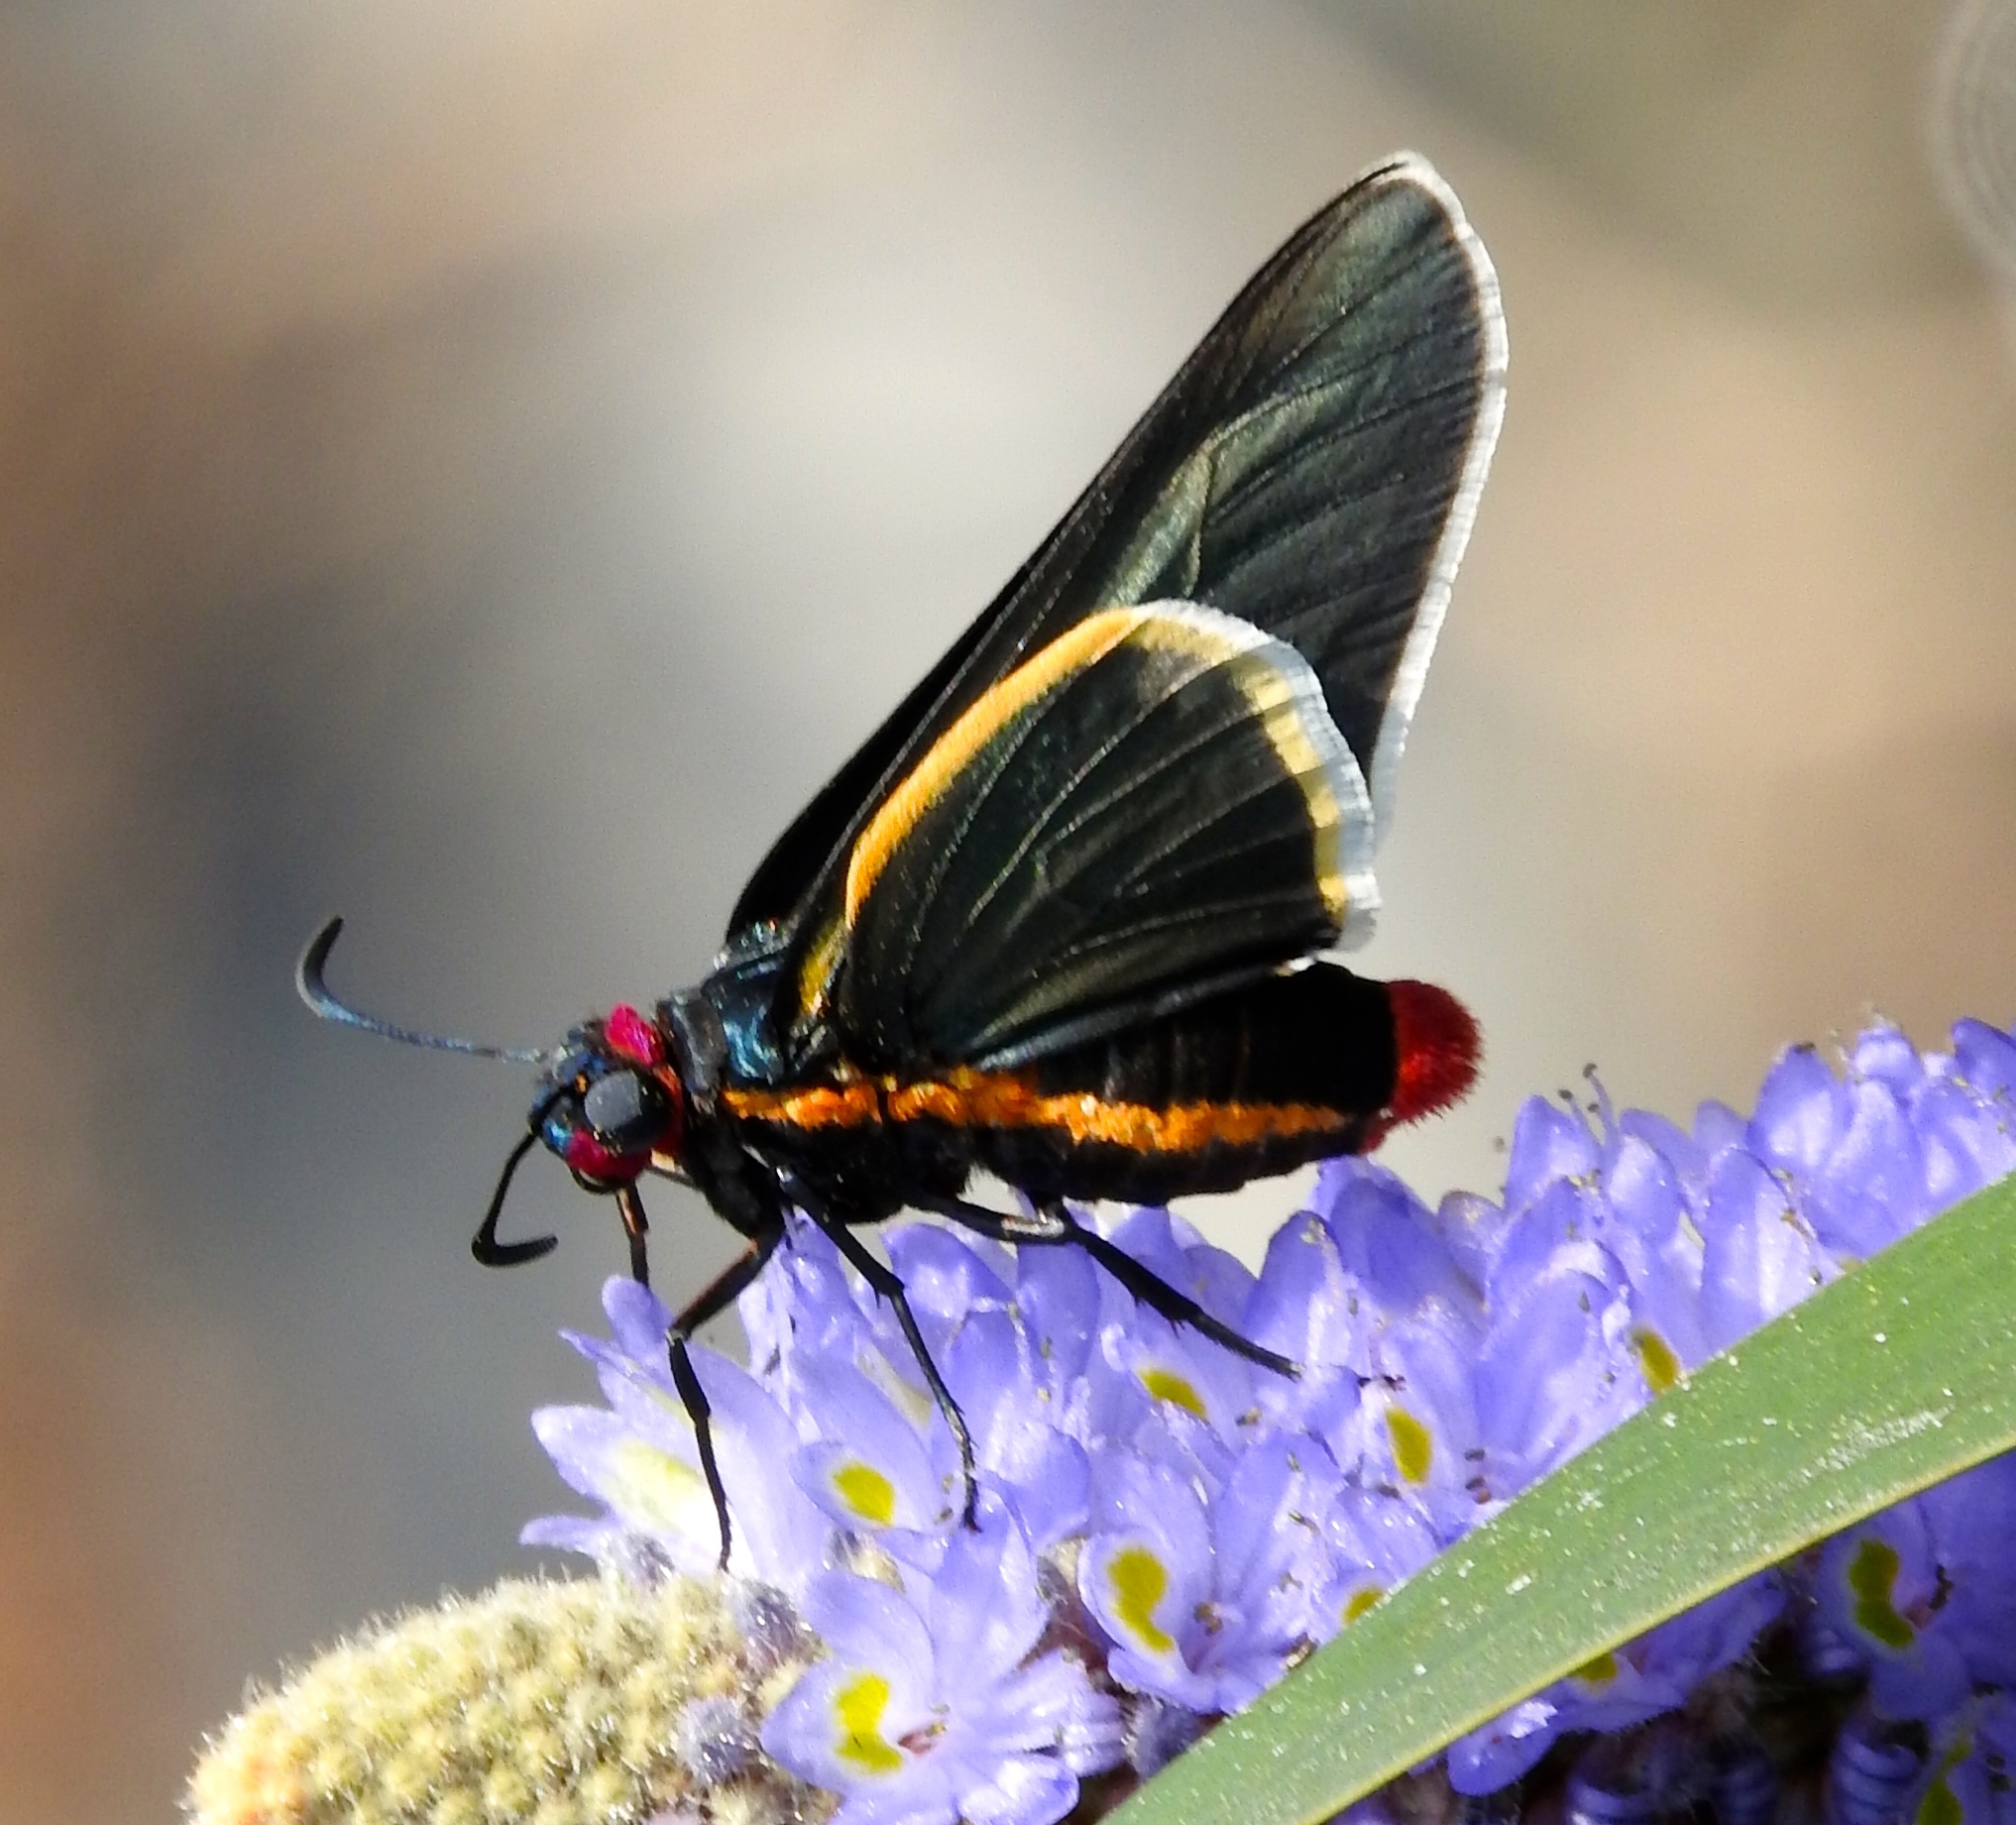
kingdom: Animalia
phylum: Arthropoda
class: Insecta
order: Lepidoptera
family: Hesperiidae
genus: Mysoria
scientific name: Mysoria affinis
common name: Red-collared firetip
